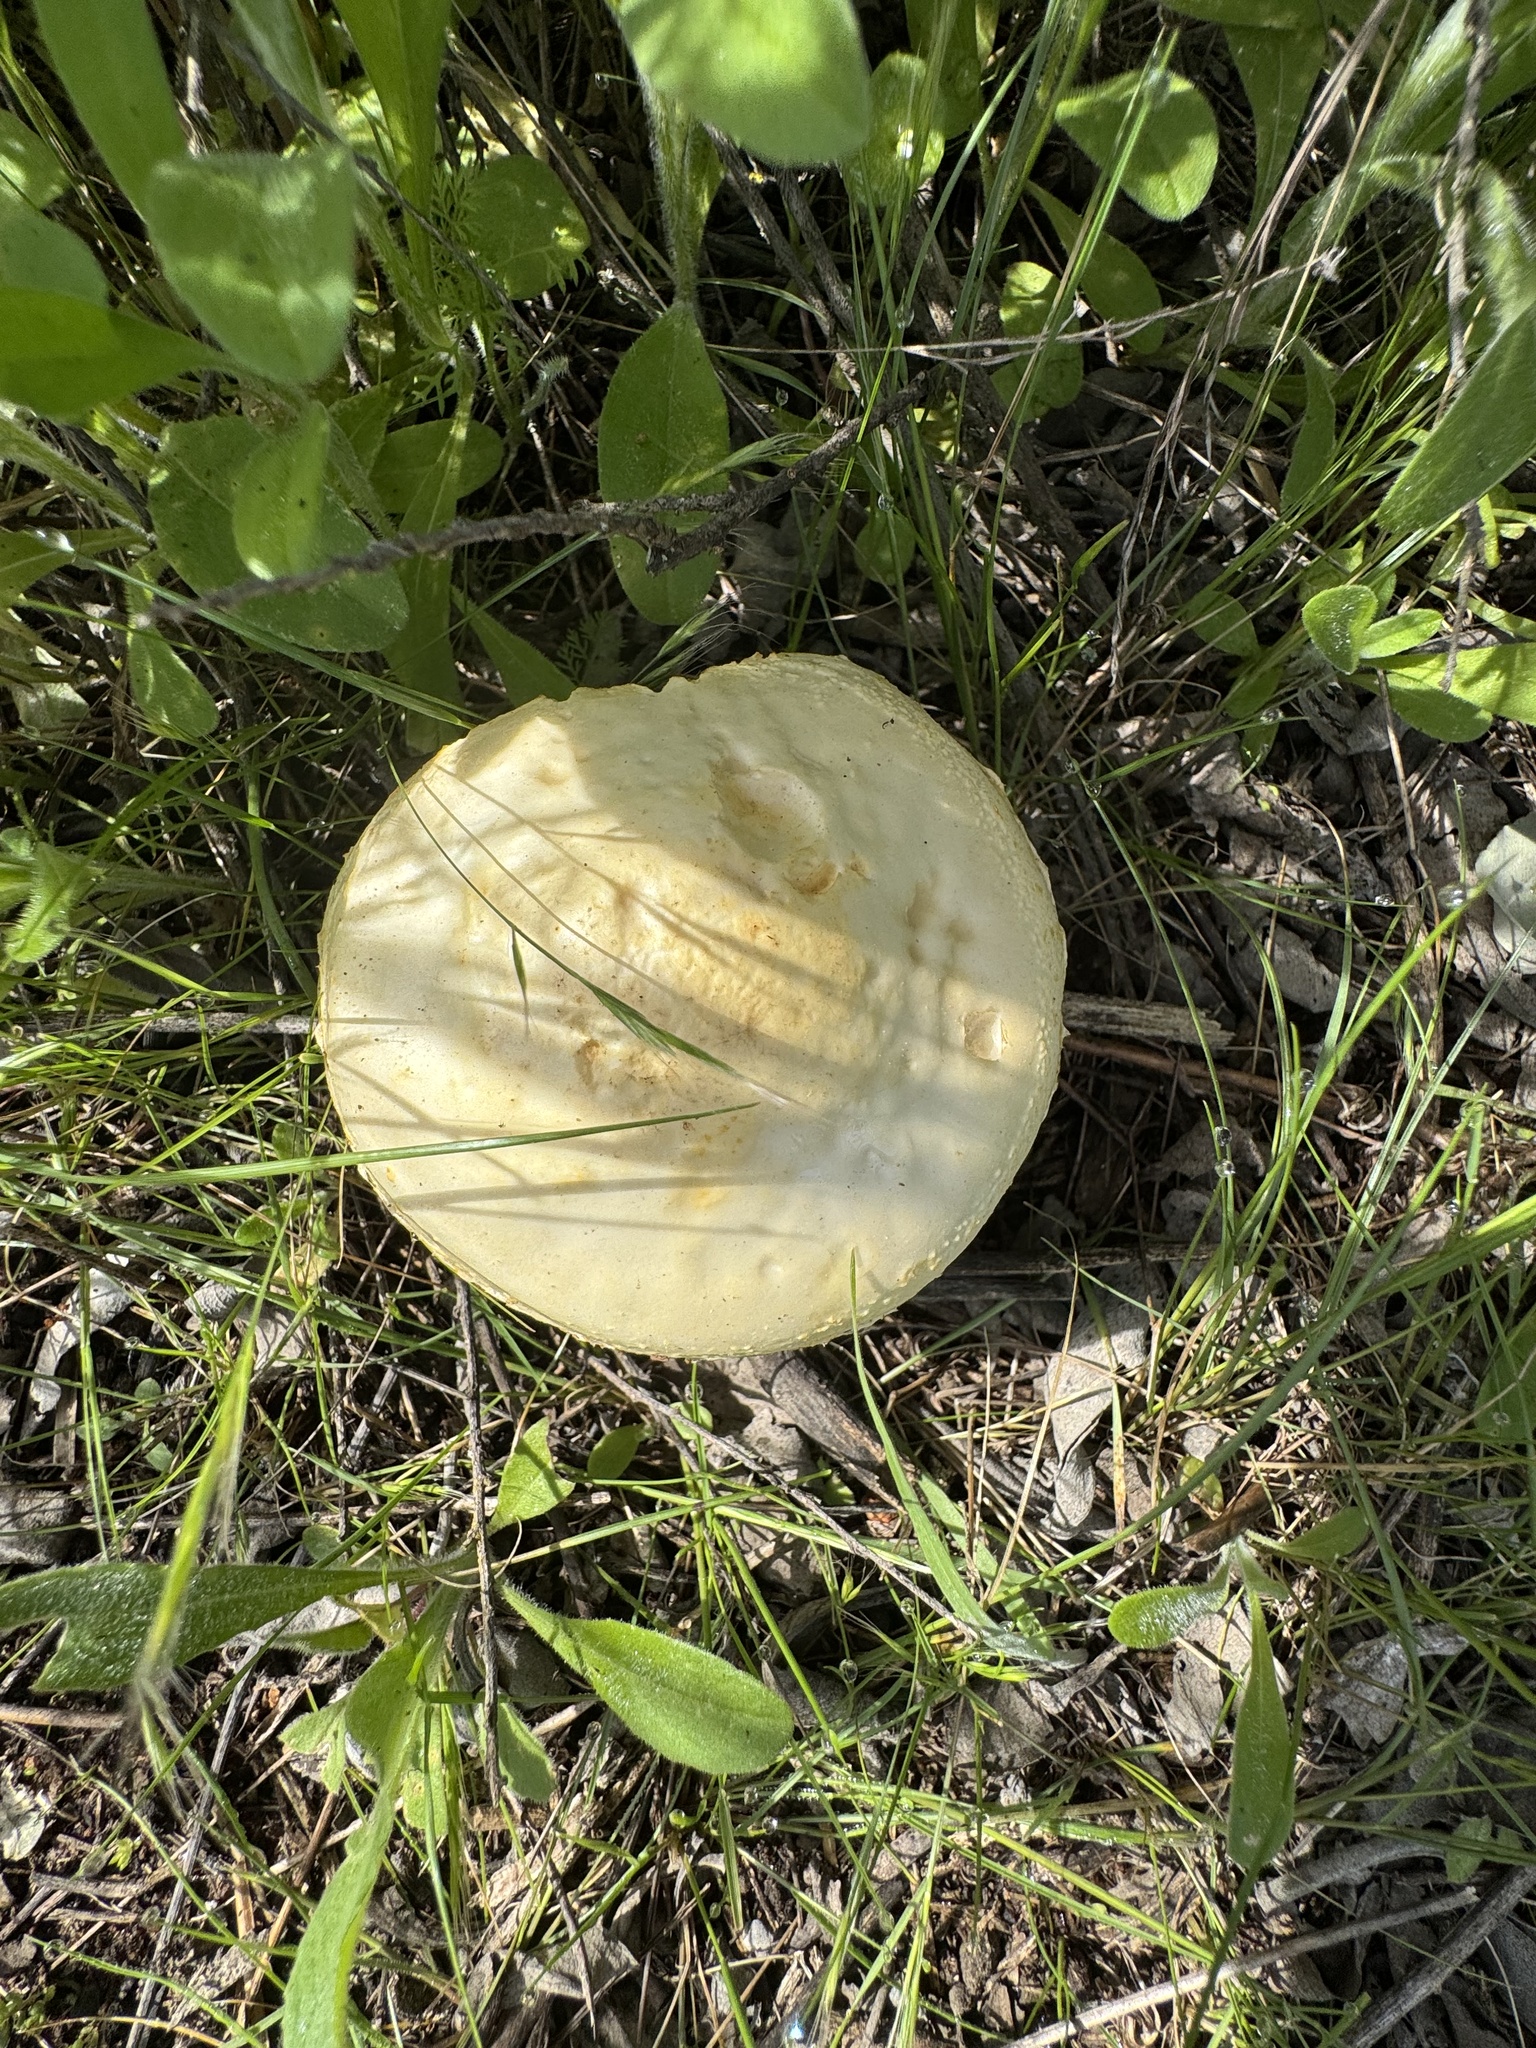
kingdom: Fungi
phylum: Basidiomycota
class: Agaricomycetes
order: Agaricales
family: Strophariaceae
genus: Agrocybe
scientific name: Agrocybe molesta
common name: Bearded fieldcap
